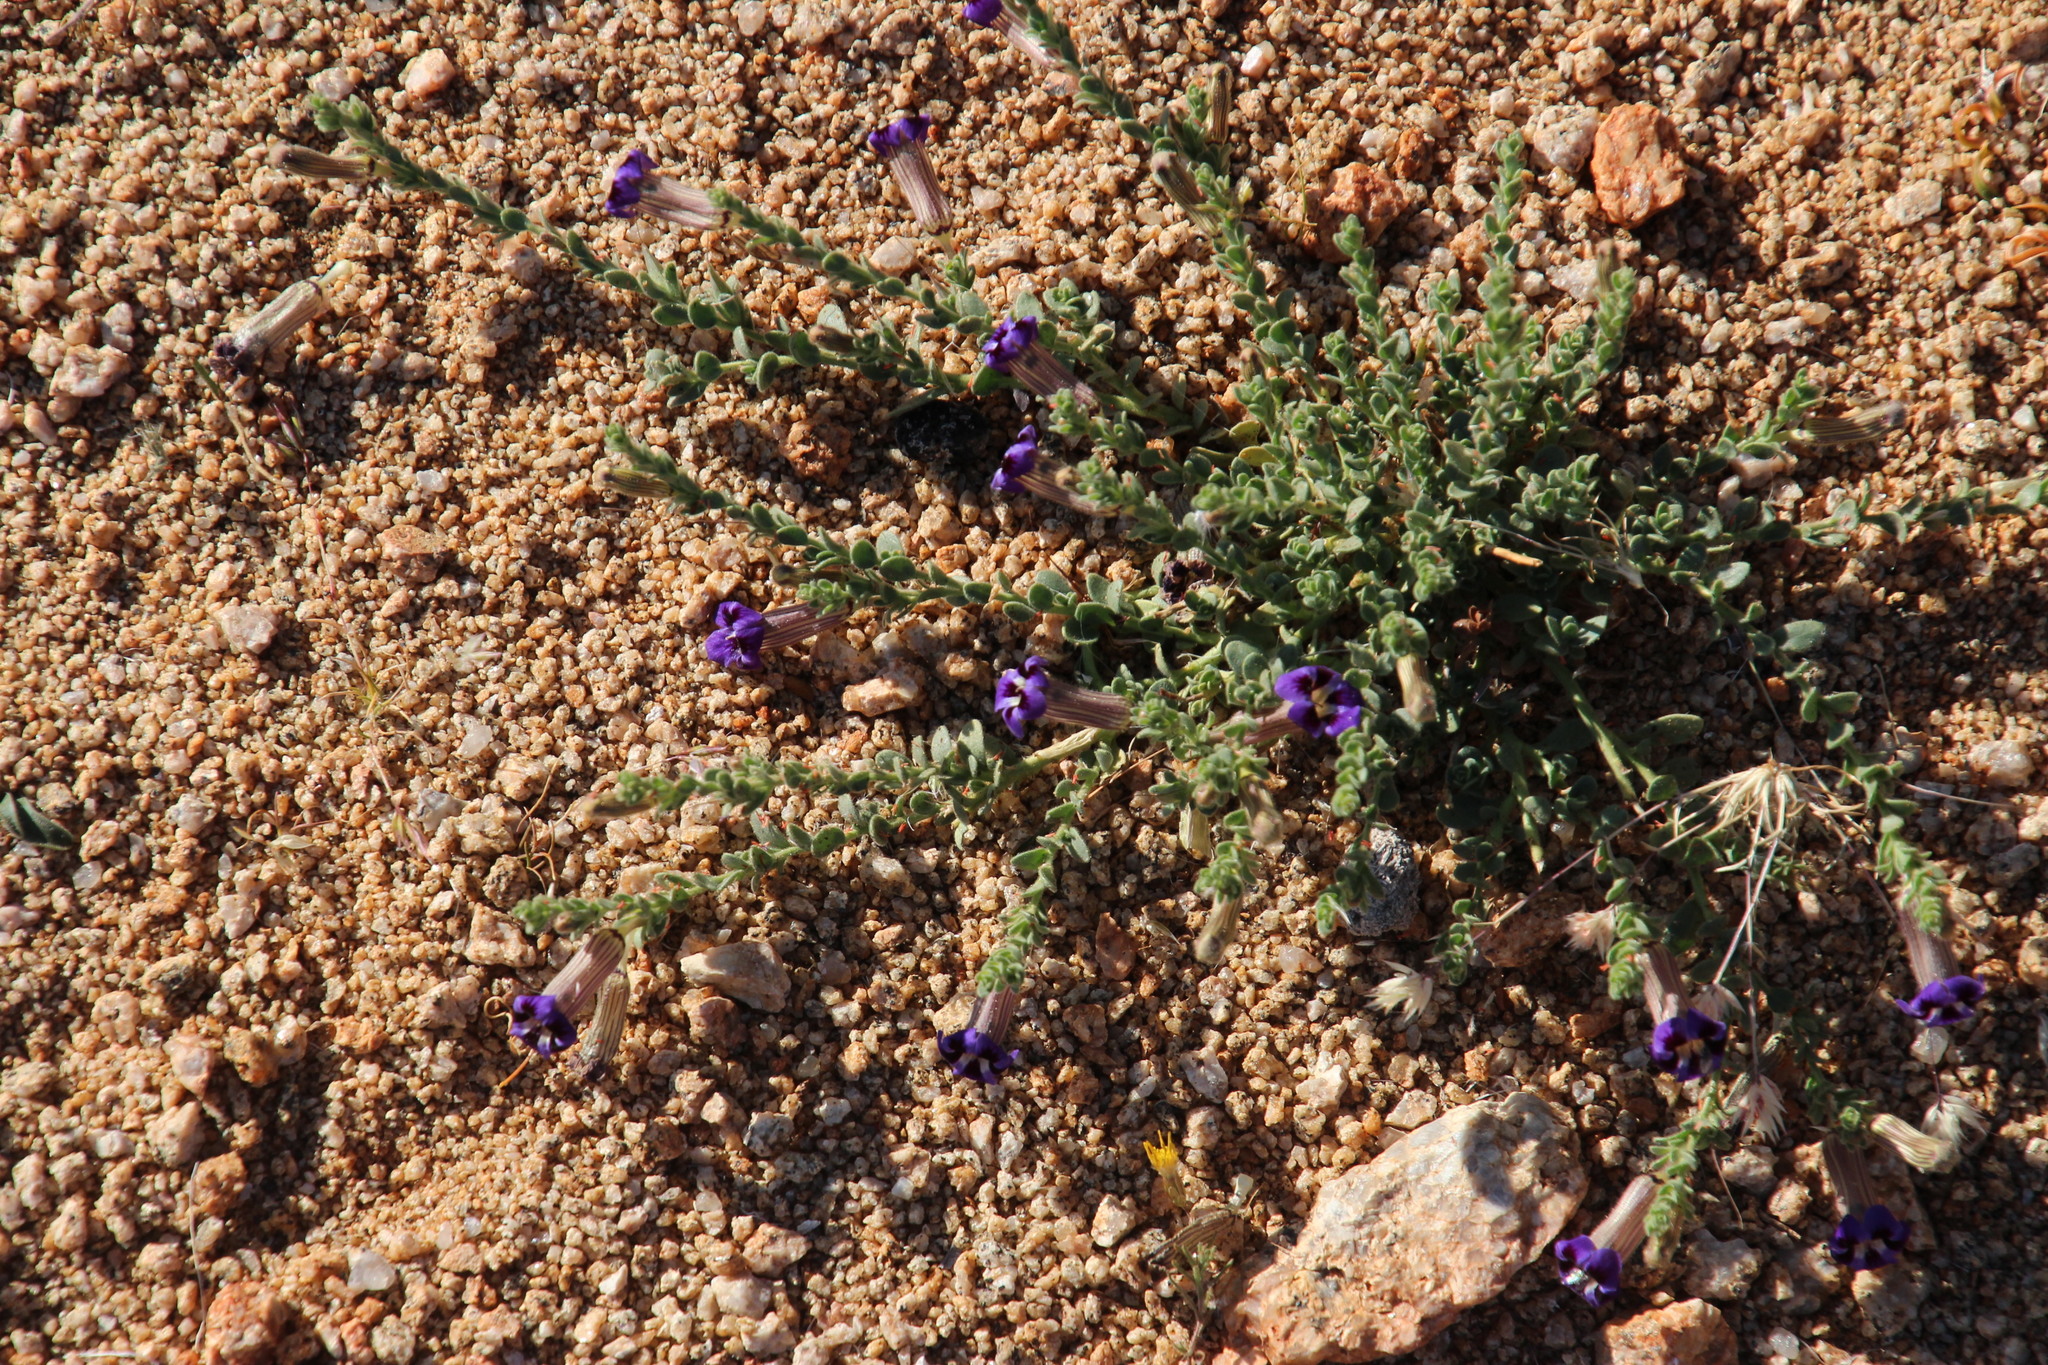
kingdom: Plantae
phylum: Tracheophyta
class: Magnoliopsida
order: Lamiales
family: Scrophulariaceae
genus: Peliostomum
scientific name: Peliostomum virgatum
